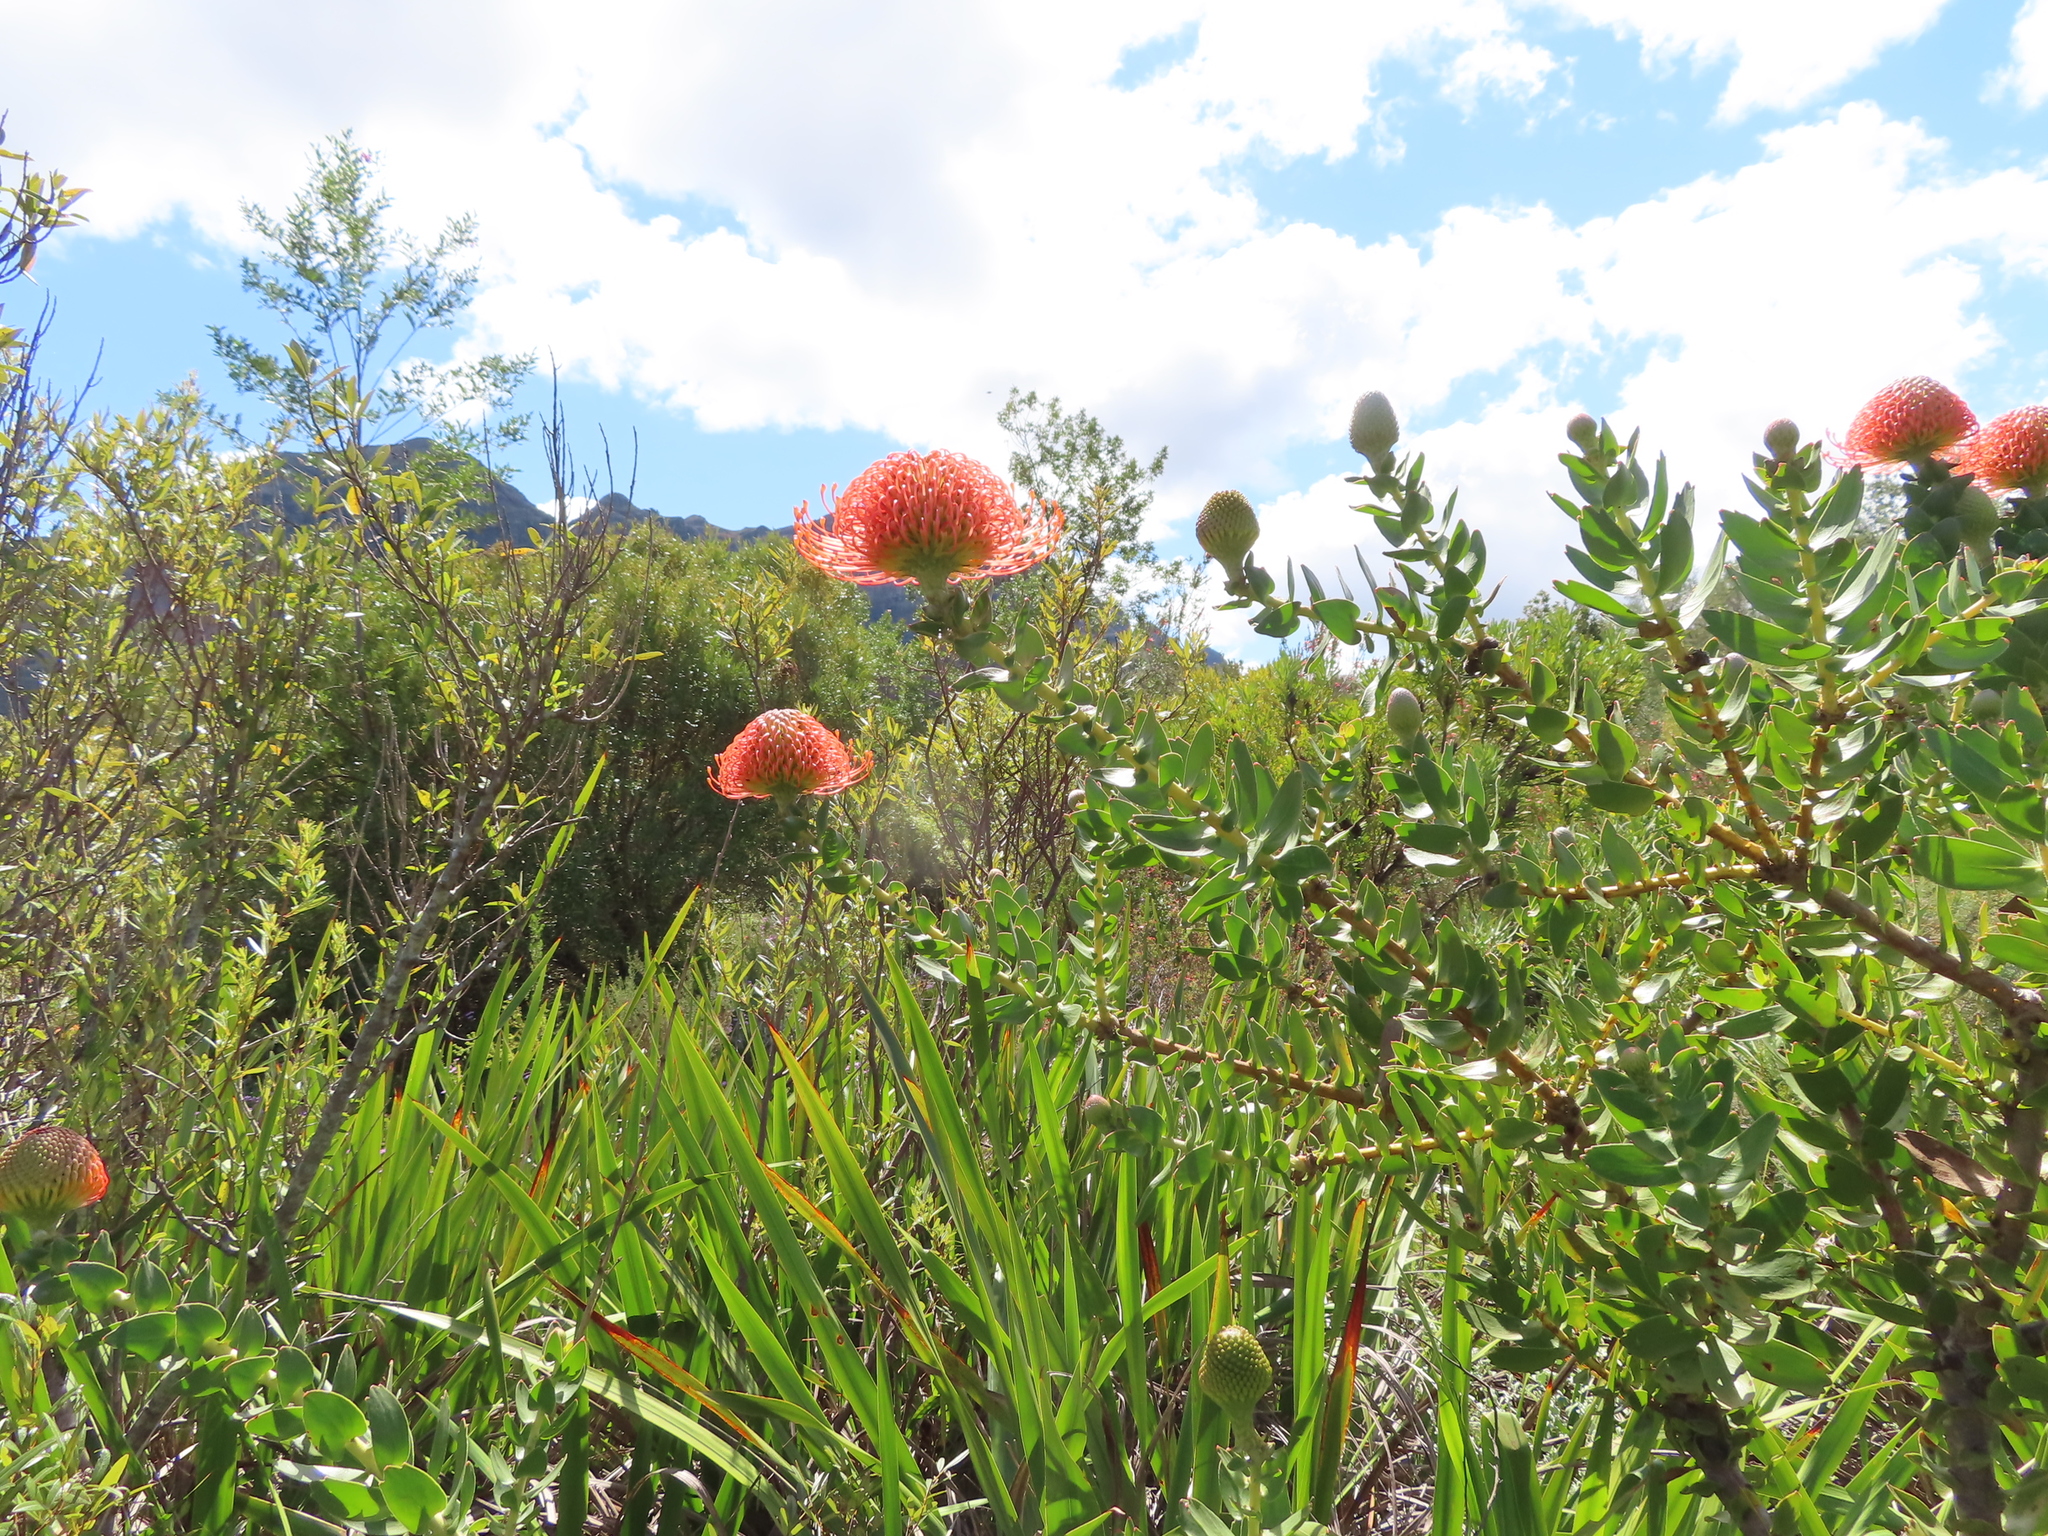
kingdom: Plantae
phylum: Tracheophyta
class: Magnoliopsida
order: Proteales
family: Proteaceae
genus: Leucospermum
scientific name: Leucospermum cordifolium
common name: Red pincushion-protea
